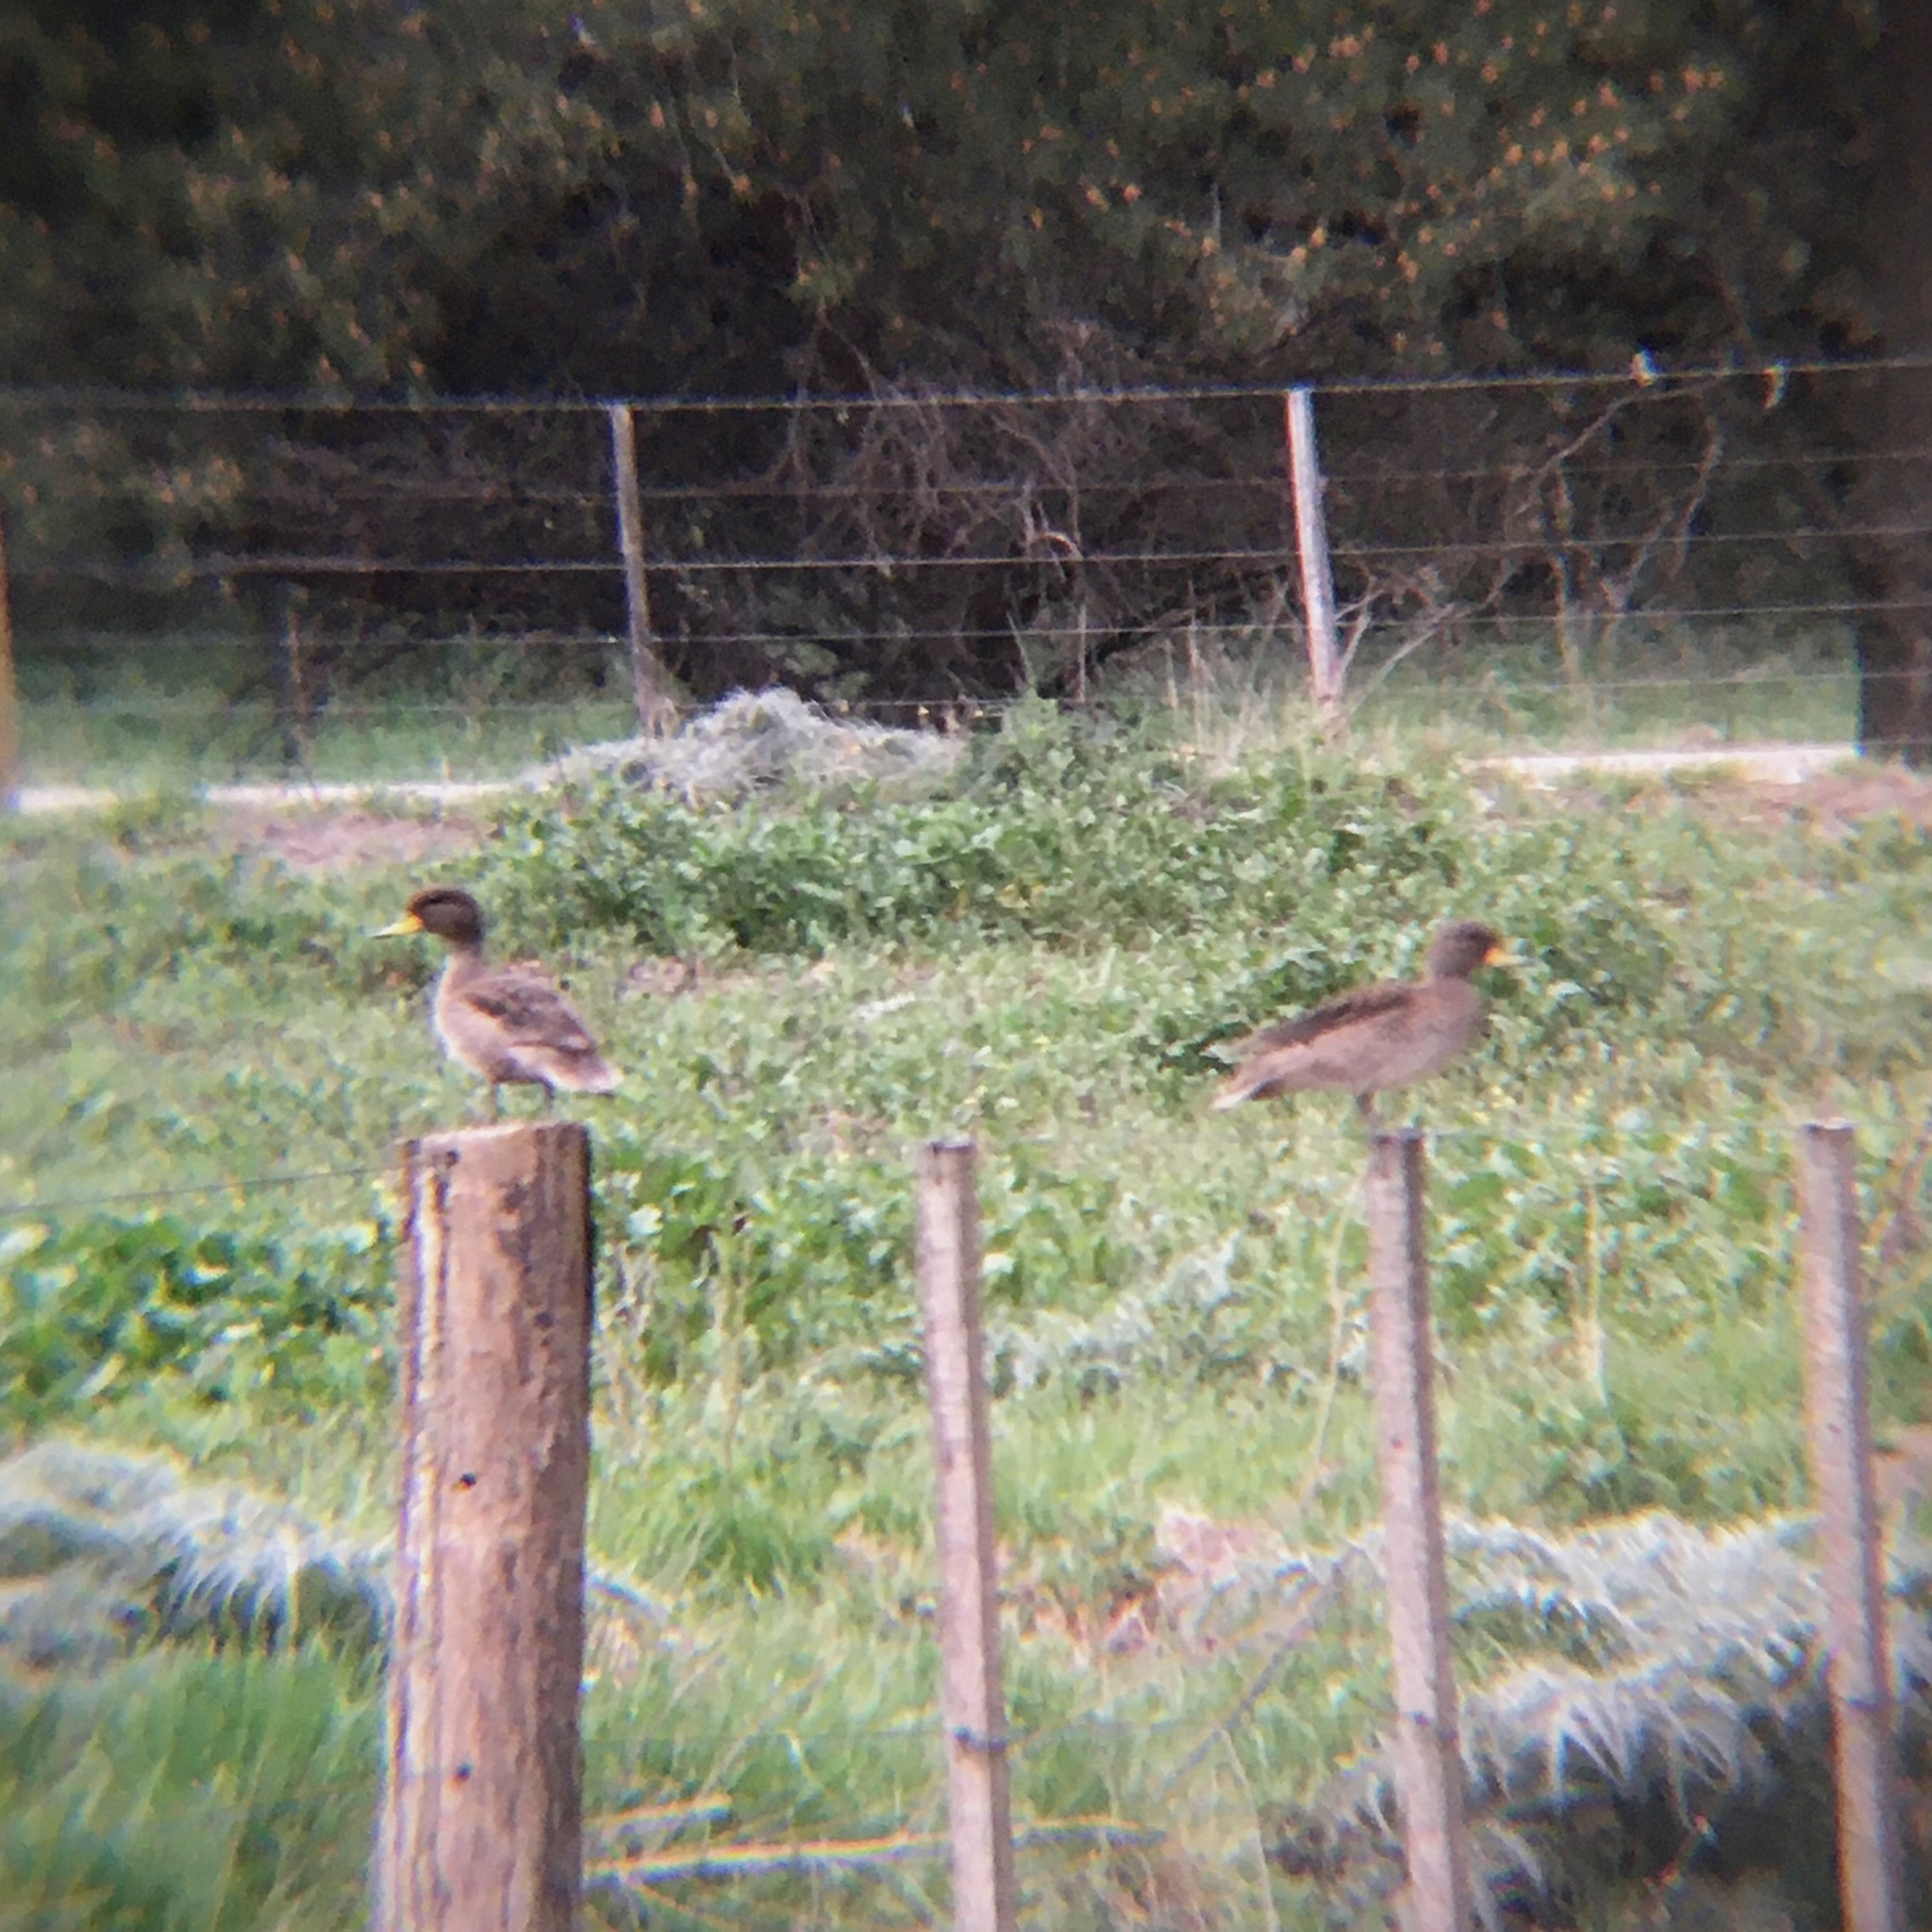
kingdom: Animalia
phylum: Chordata
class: Aves
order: Anseriformes
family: Anatidae
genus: Anas
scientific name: Anas flavirostris
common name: Yellow-billed teal
